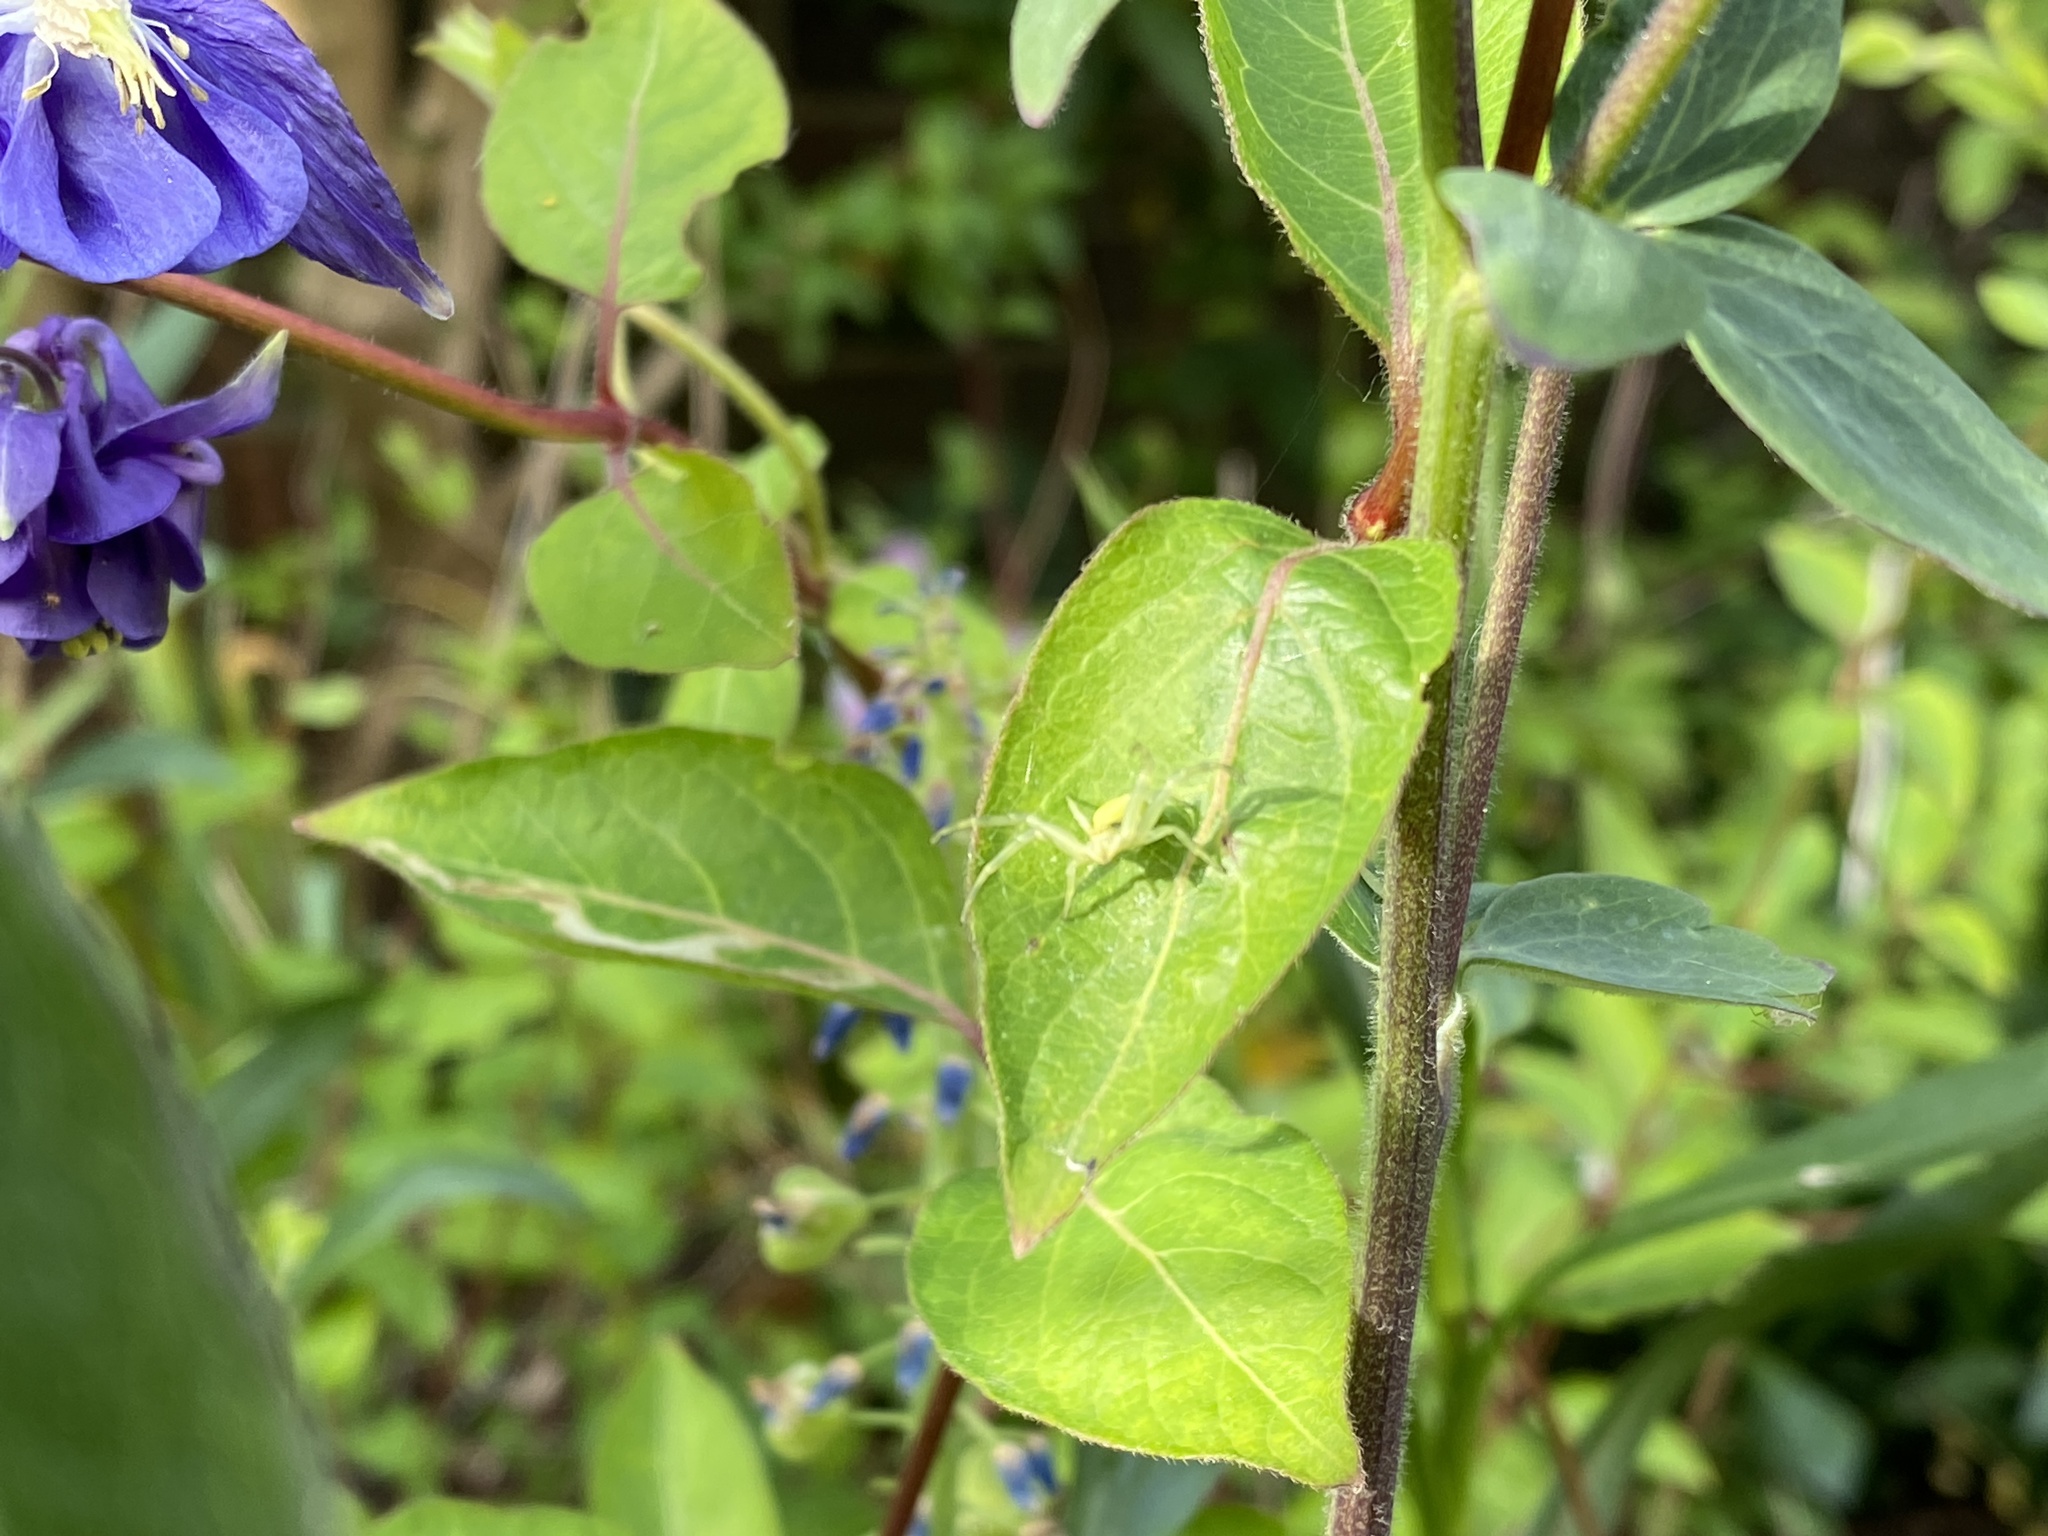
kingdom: Animalia
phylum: Arthropoda
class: Arachnida
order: Araneae
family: Thomisidae
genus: Misumena
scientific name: Misumena vatia
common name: Goldenrod crab spider
